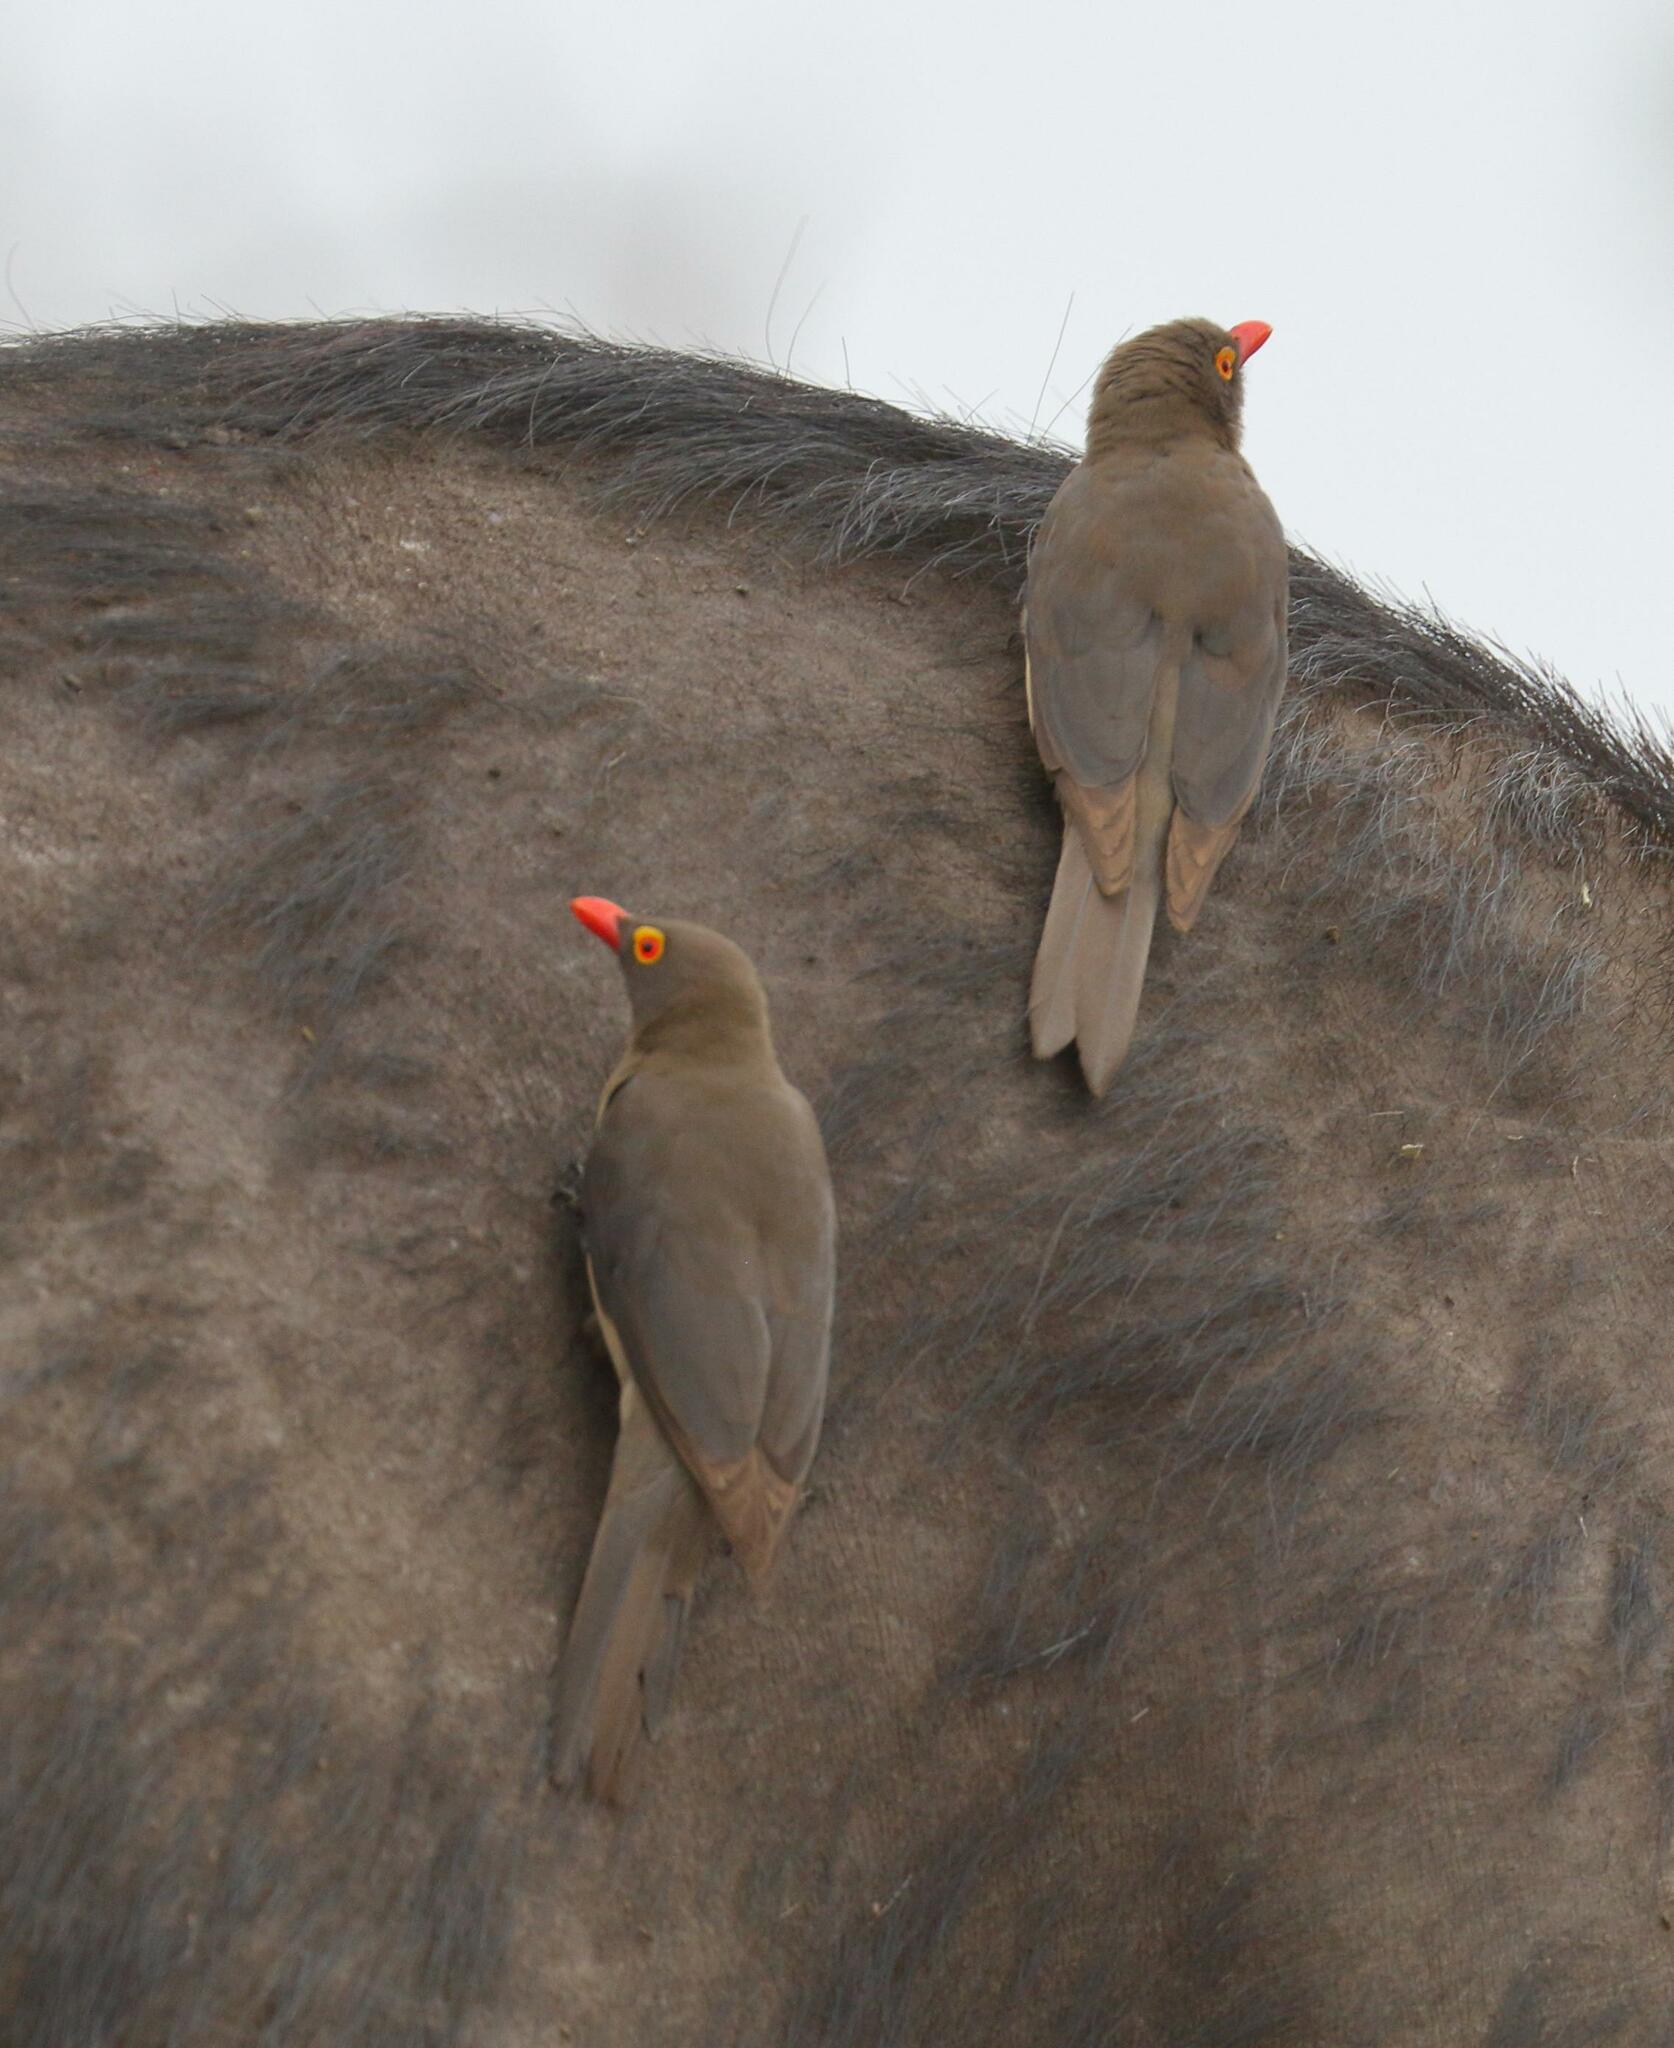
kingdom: Animalia
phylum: Chordata
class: Aves
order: Passeriformes
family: Buphagidae
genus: Buphagus
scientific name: Buphagus erythrorhynchus
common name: Red-billed oxpecker
